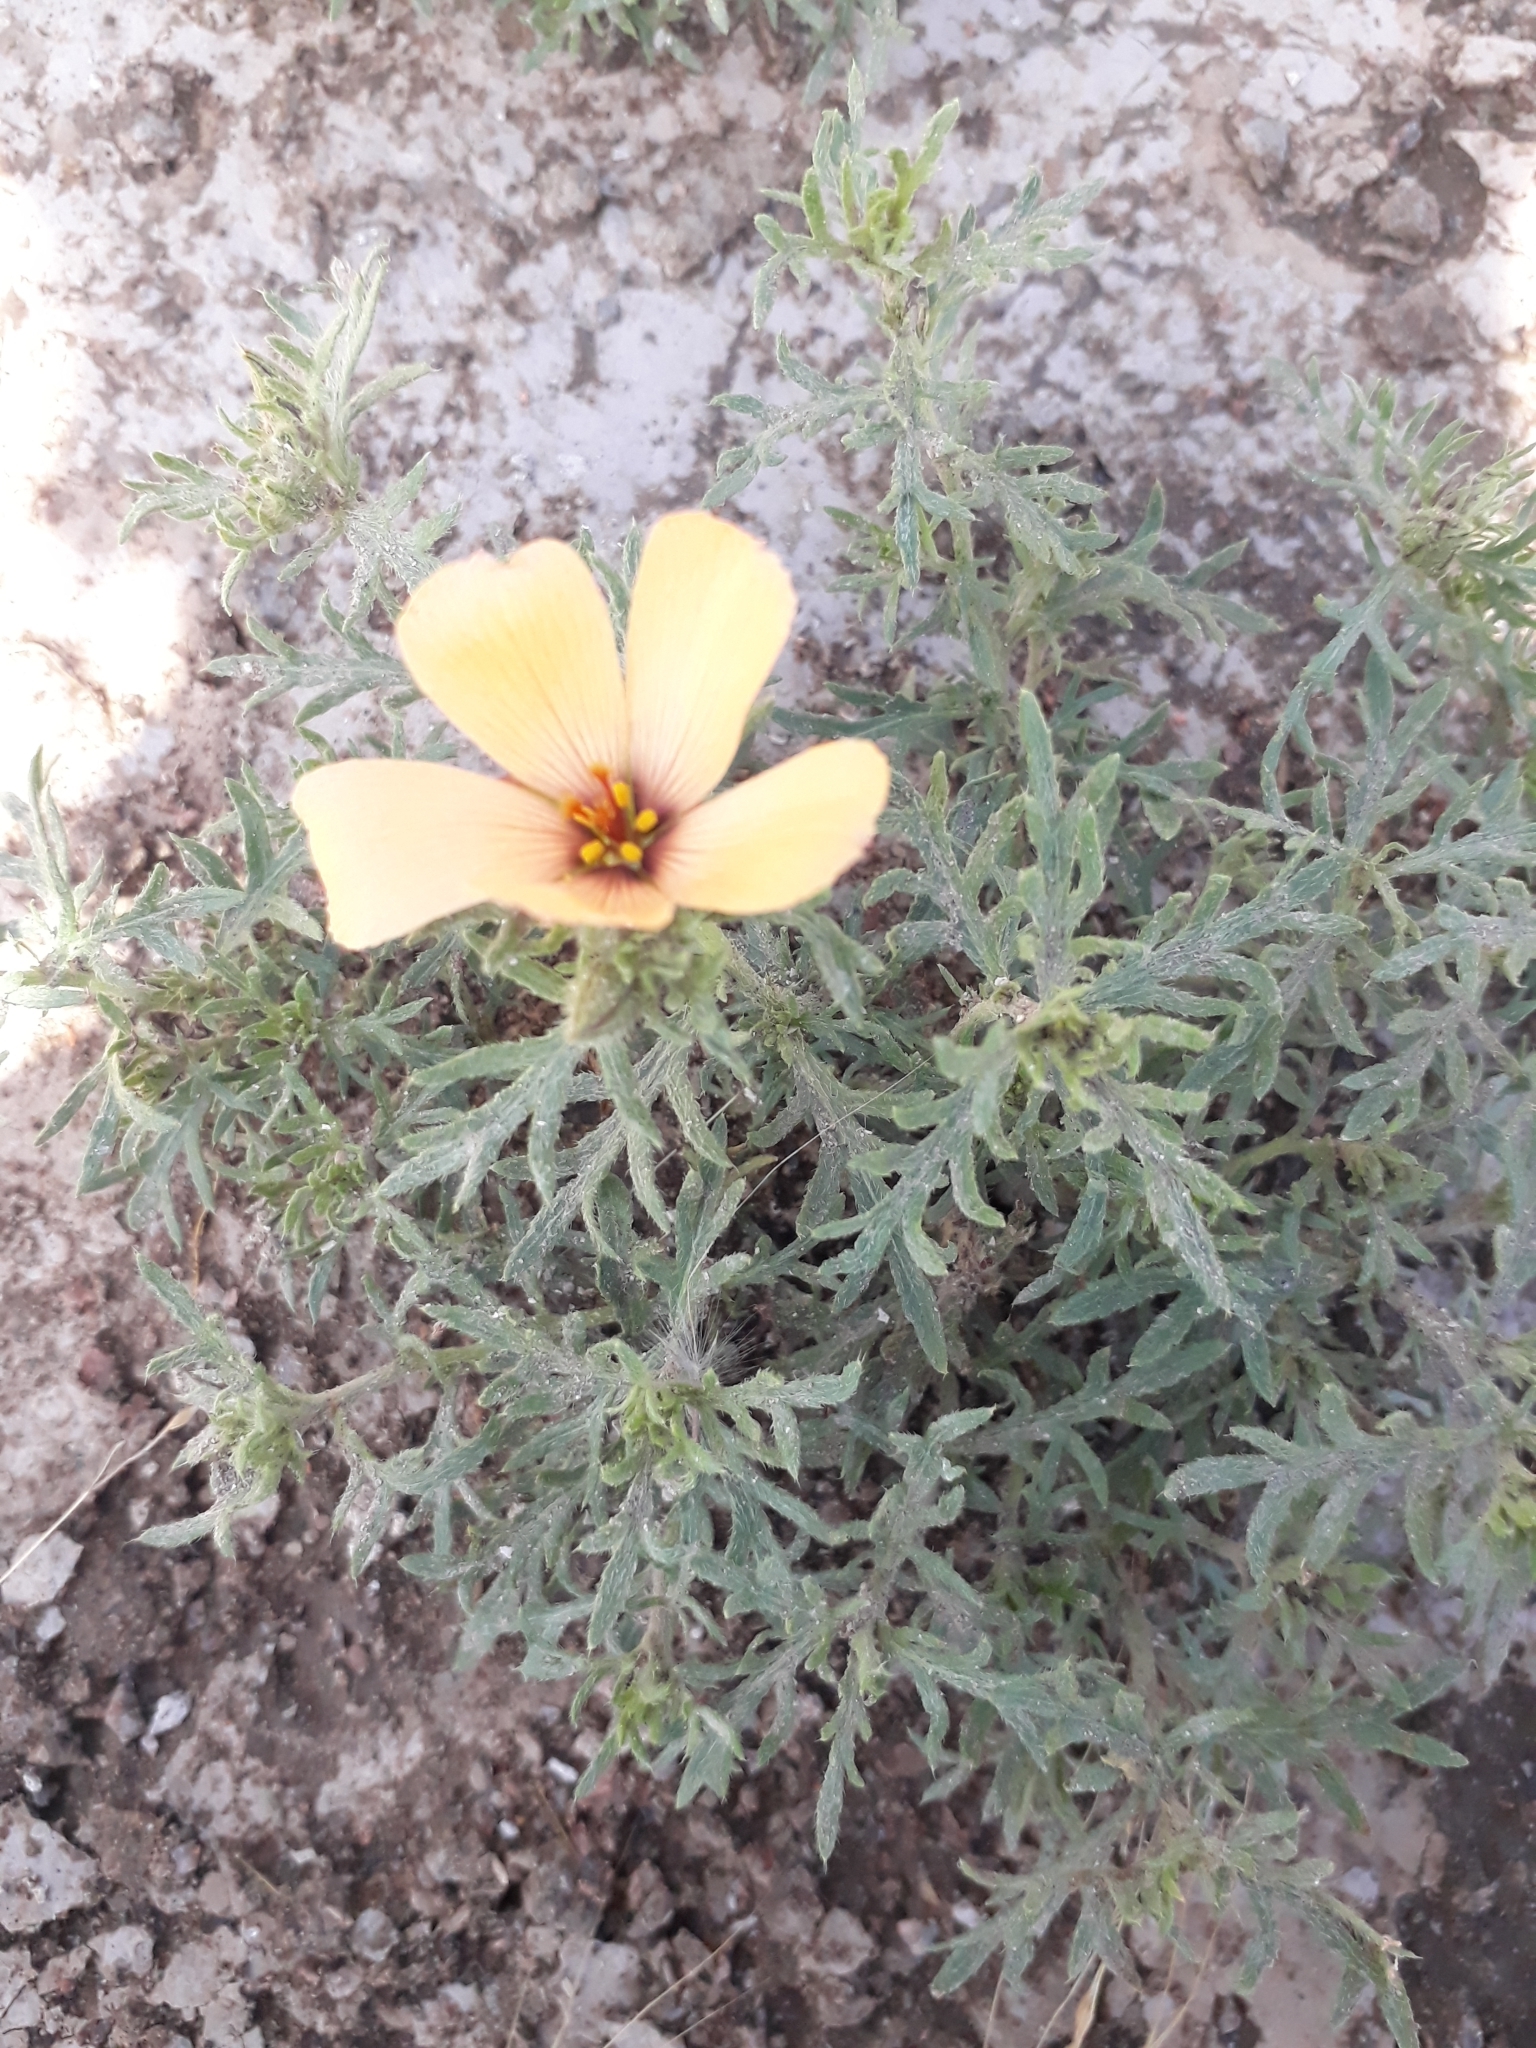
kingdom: Plantae
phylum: Tracheophyta
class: Magnoliopsida
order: Malpighiales
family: Turneraceae
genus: Turnera
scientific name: Turnera sidoides
